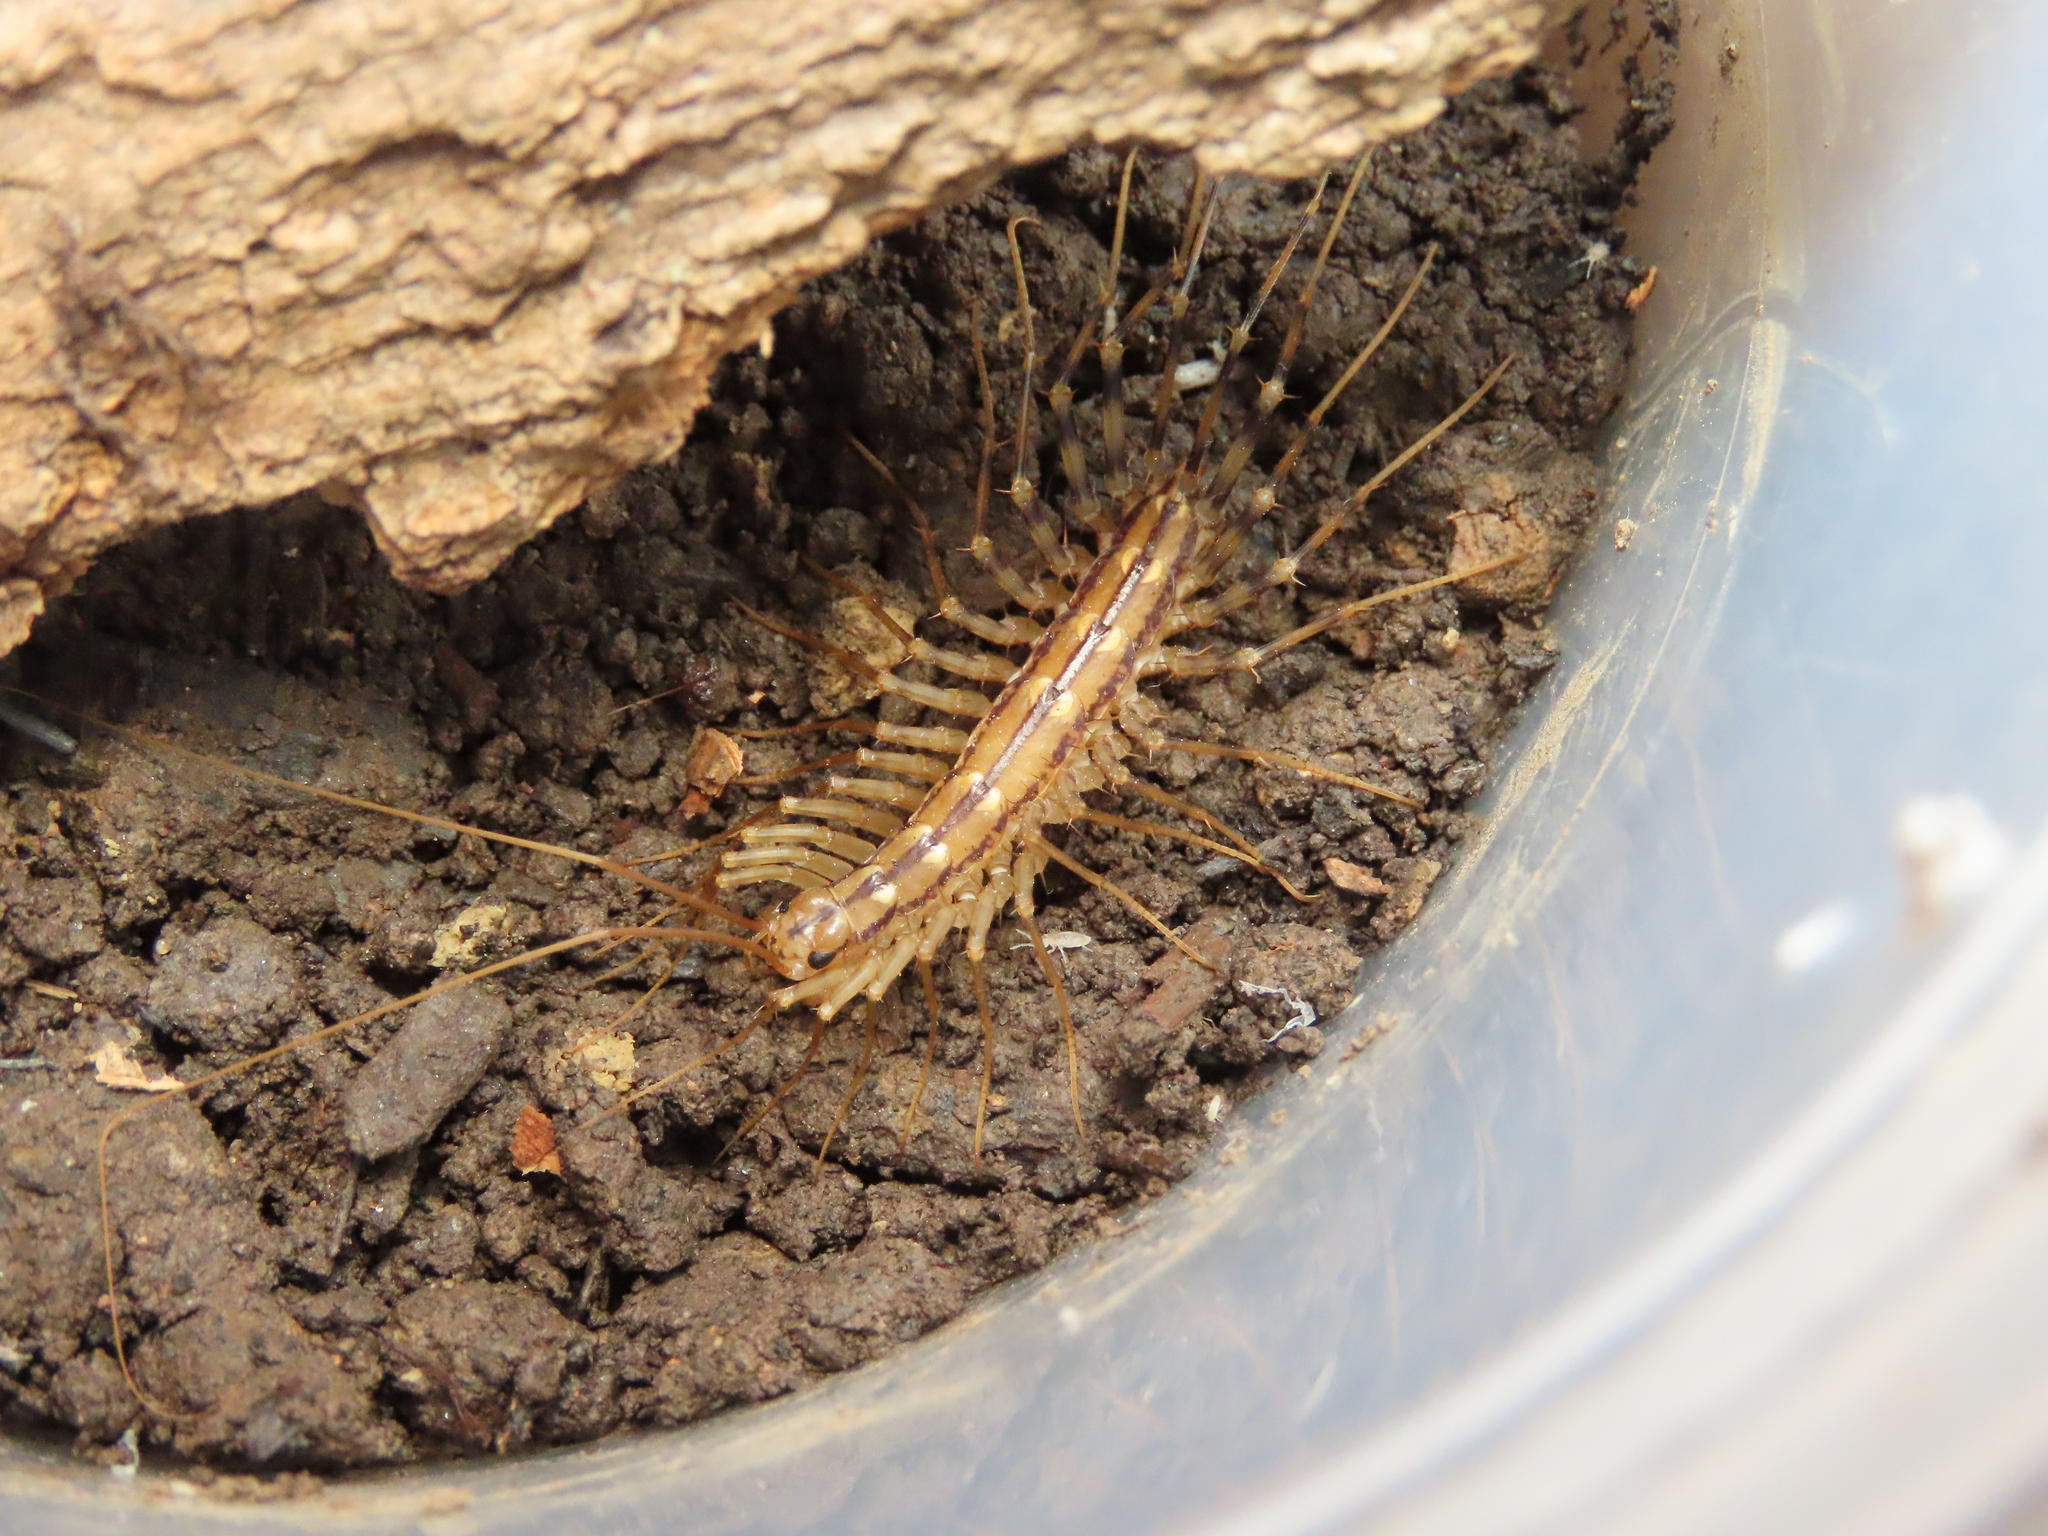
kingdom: Animalia
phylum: Arthropoda
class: Chilopoda
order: Scutigeromorpha
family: Scutigeridae
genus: Scutigera
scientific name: Scutigera coleoptrata
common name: House centipede
